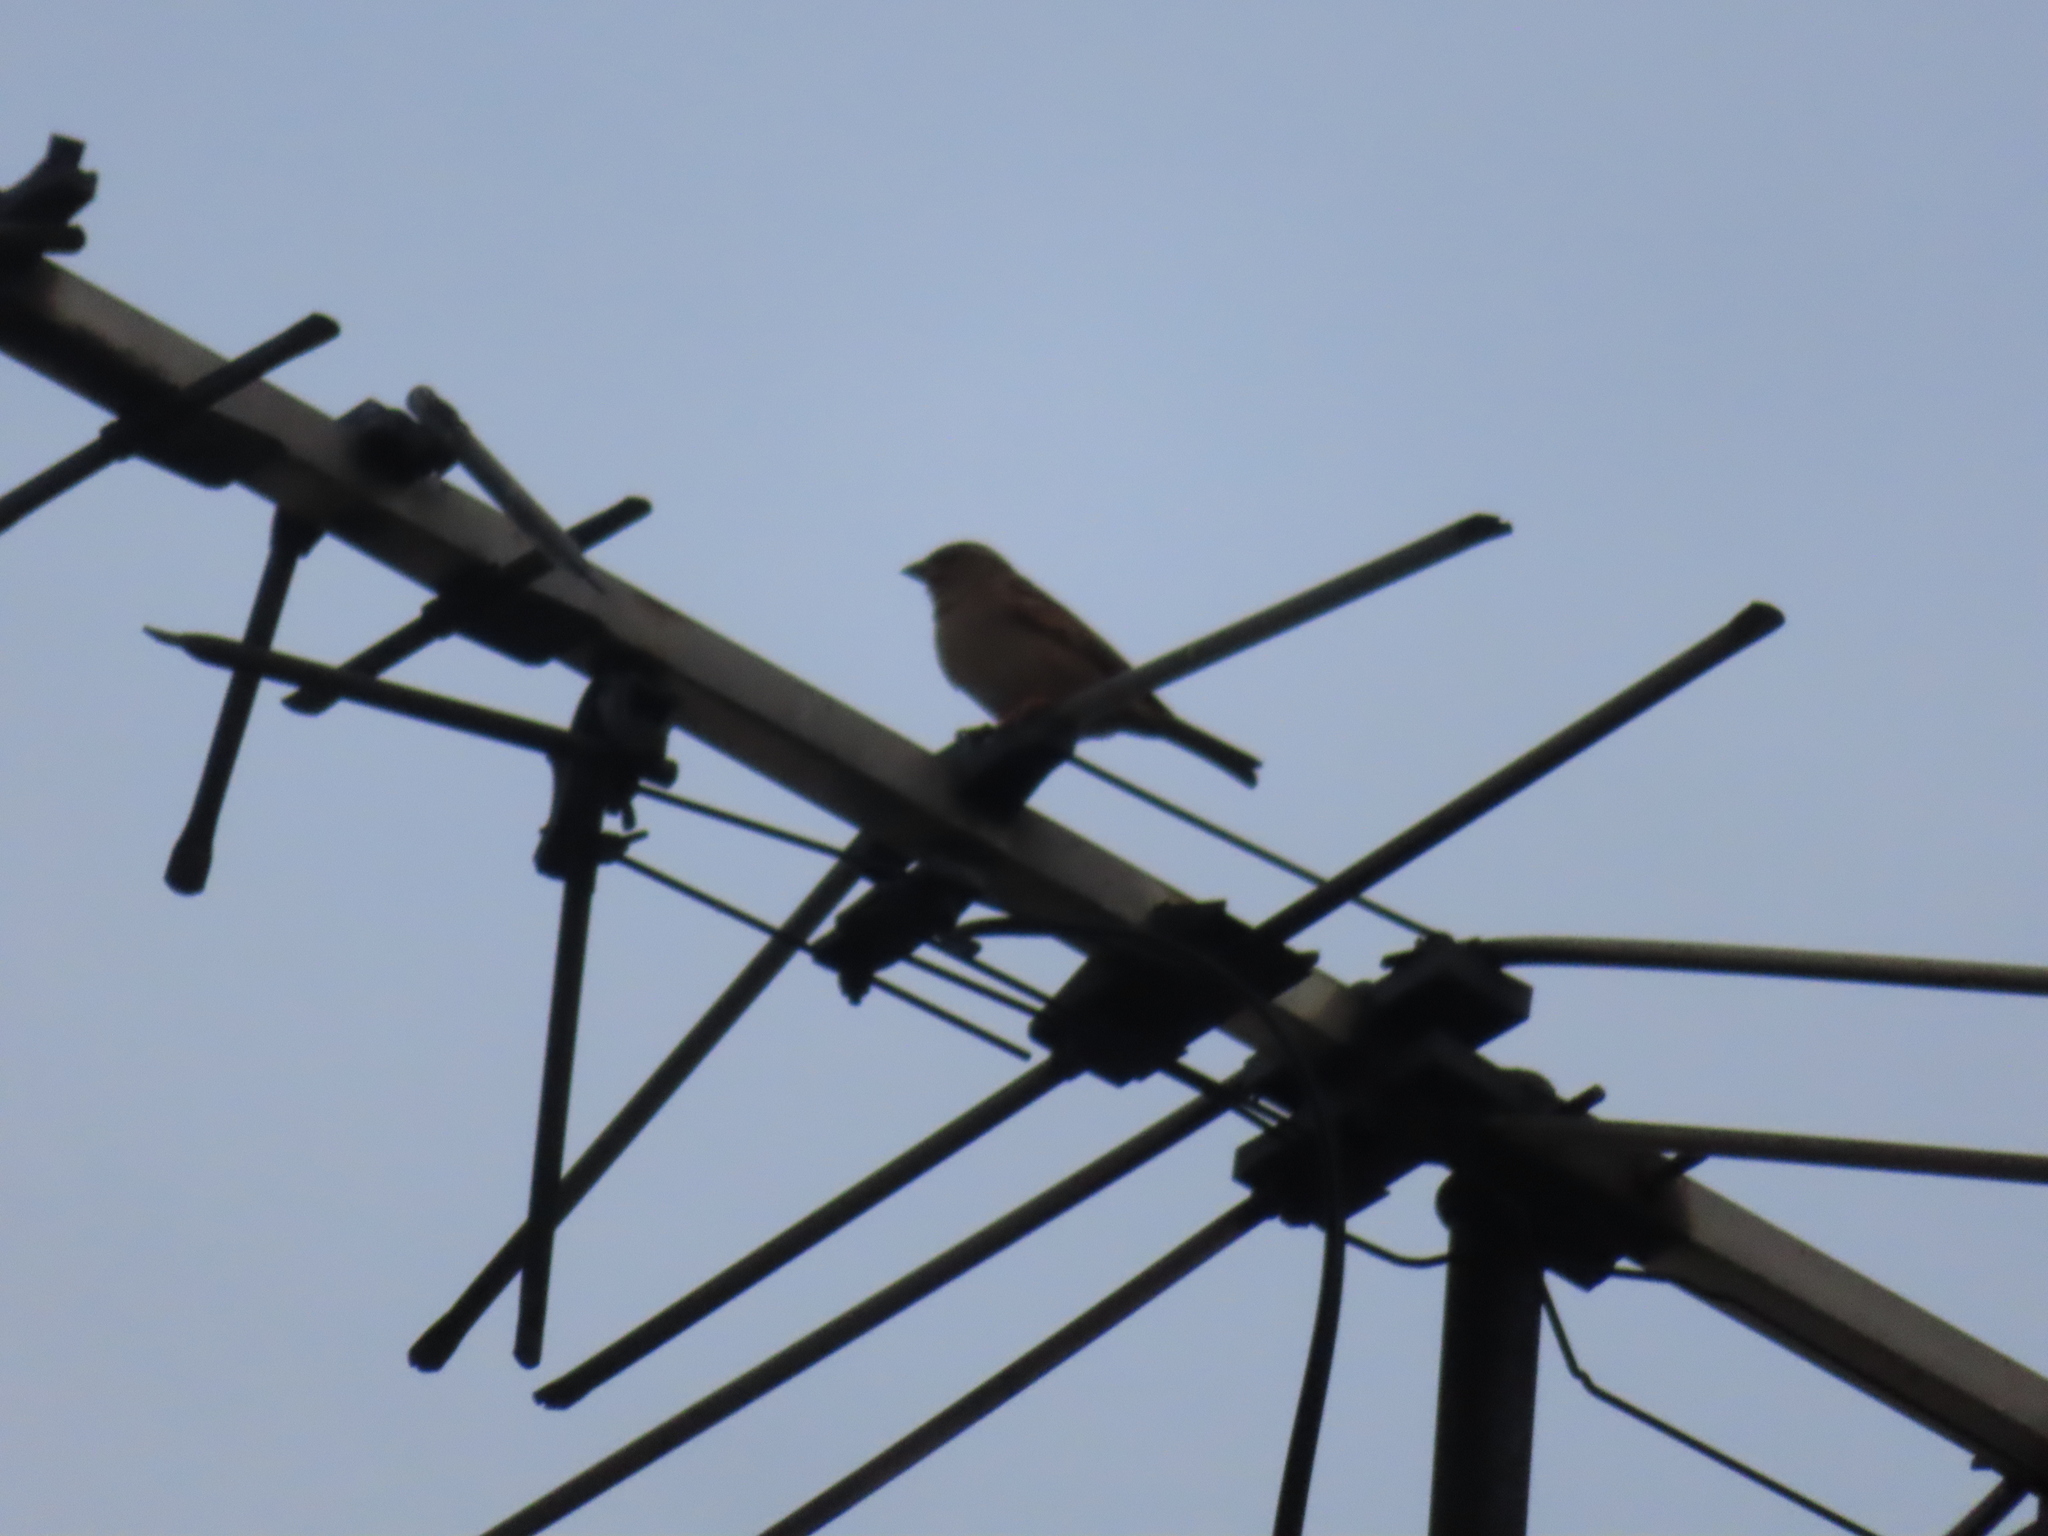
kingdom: Animalia
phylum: Chordata
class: Aves
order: Passeriformes
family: Passeridae
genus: Passer
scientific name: Passer domesticus
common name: House sparrow
